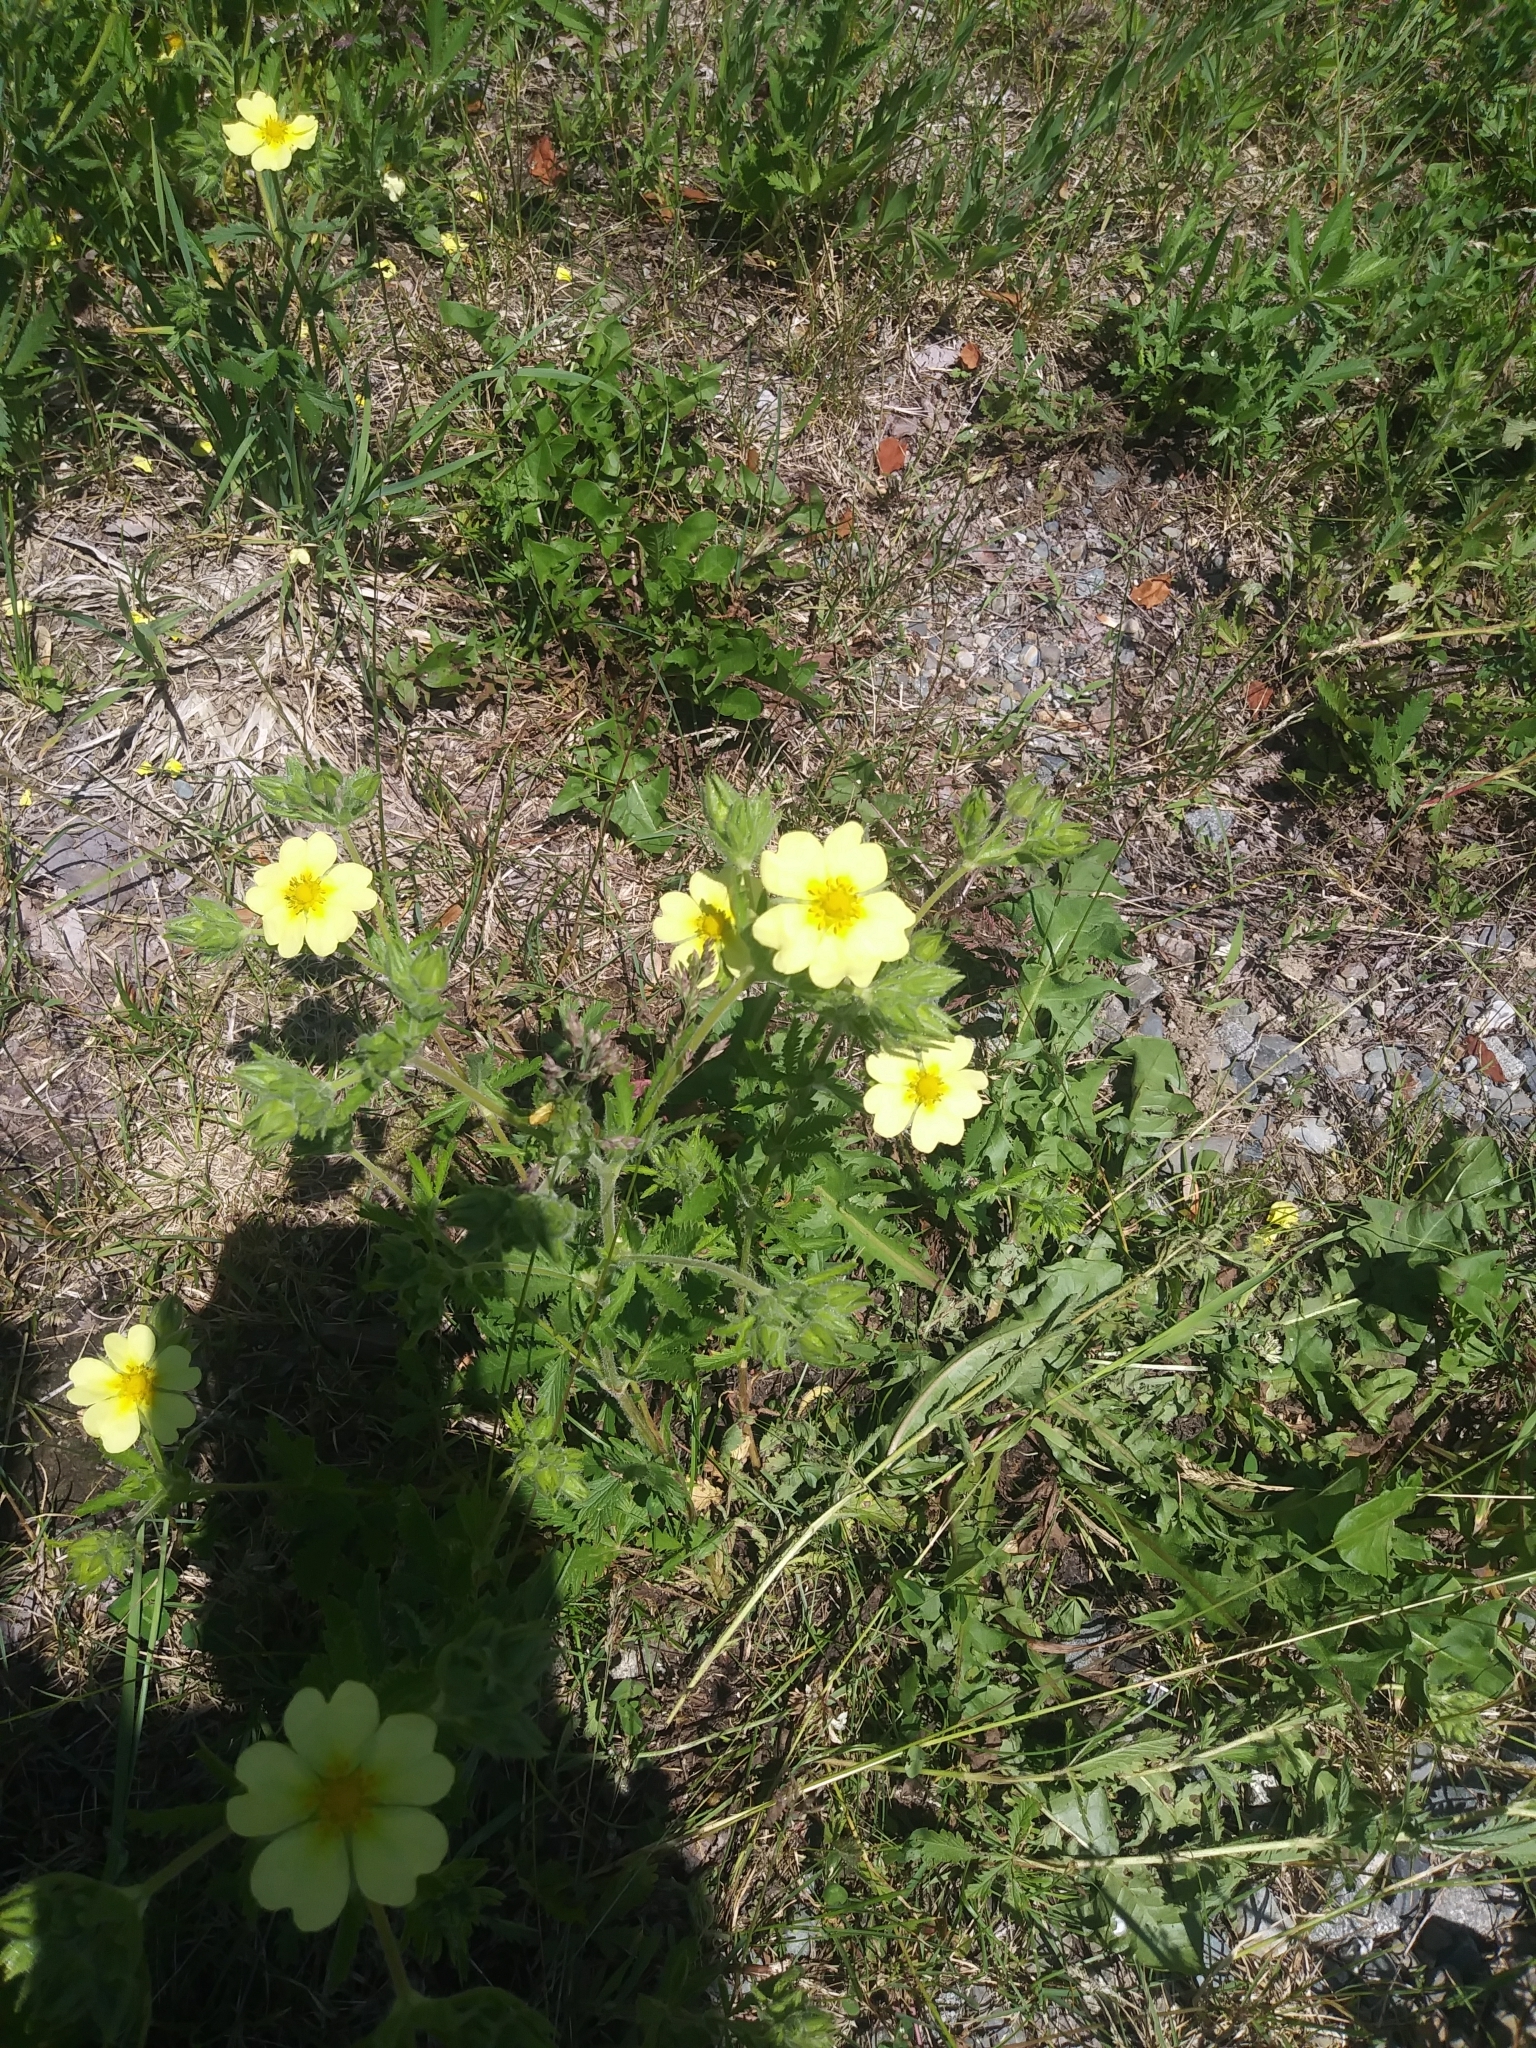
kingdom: Plantae
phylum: Tracheophyta
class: Magnoliopsida
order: Rosales
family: Rosaceae
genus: Potentilla
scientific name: Potentilla recta
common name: Sulphur cinquefoil
